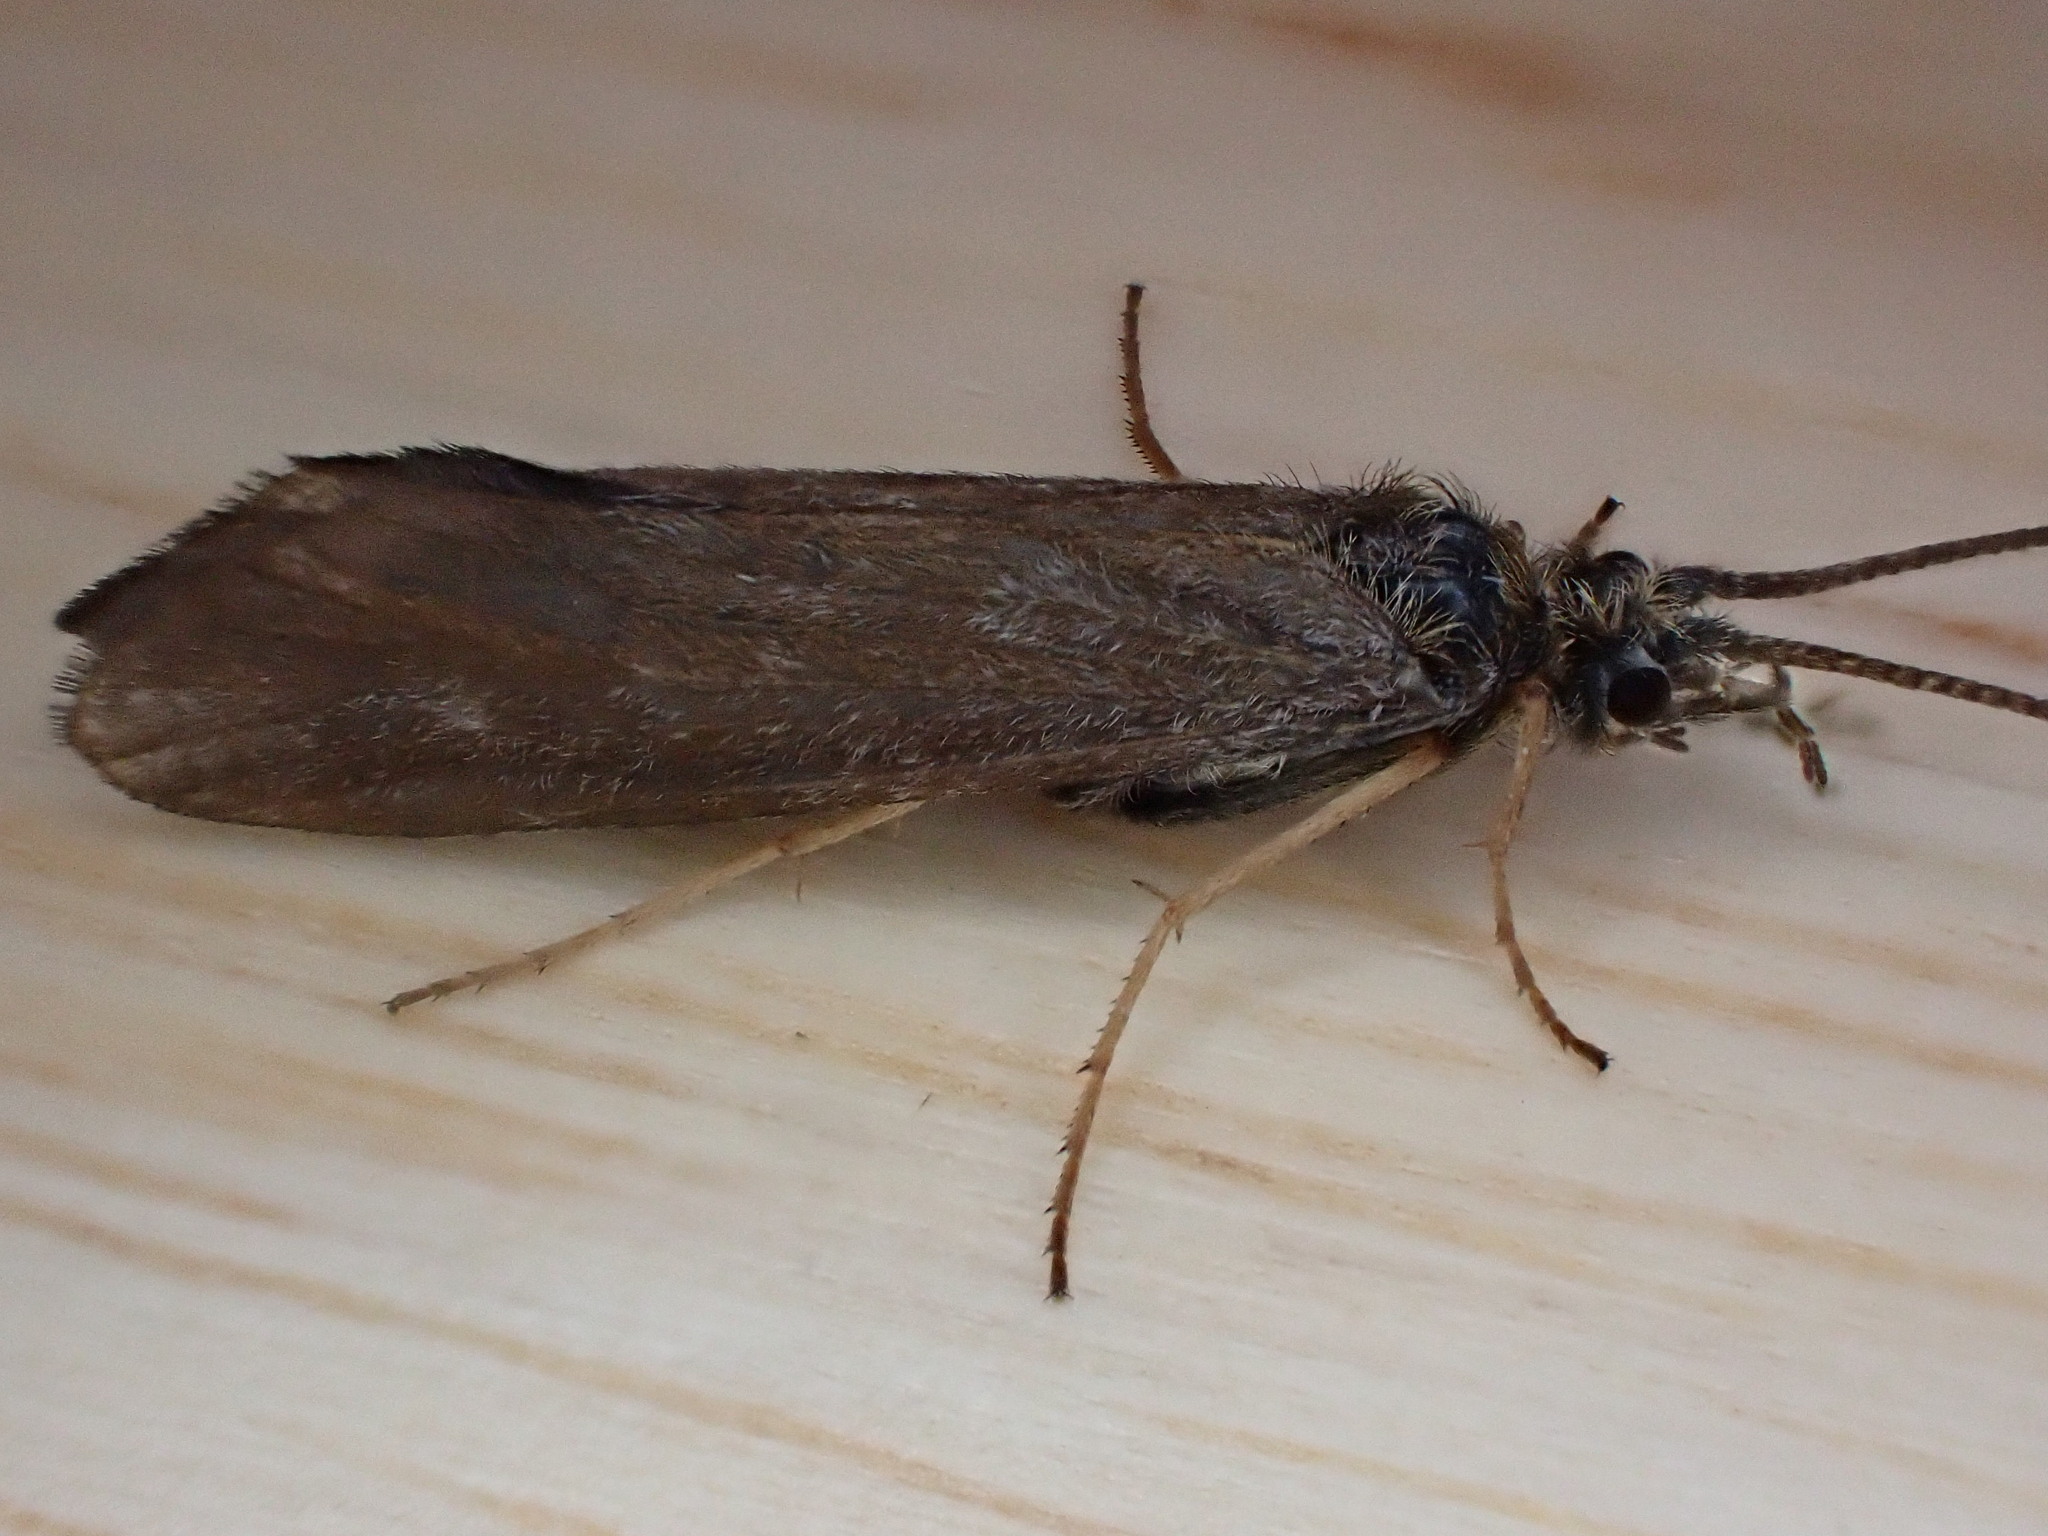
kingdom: Animalia
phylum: Arthropoda
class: Insecta
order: Trichoptera
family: Sericostomatidae
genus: Sericostoma
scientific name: Sericostoma personatum
